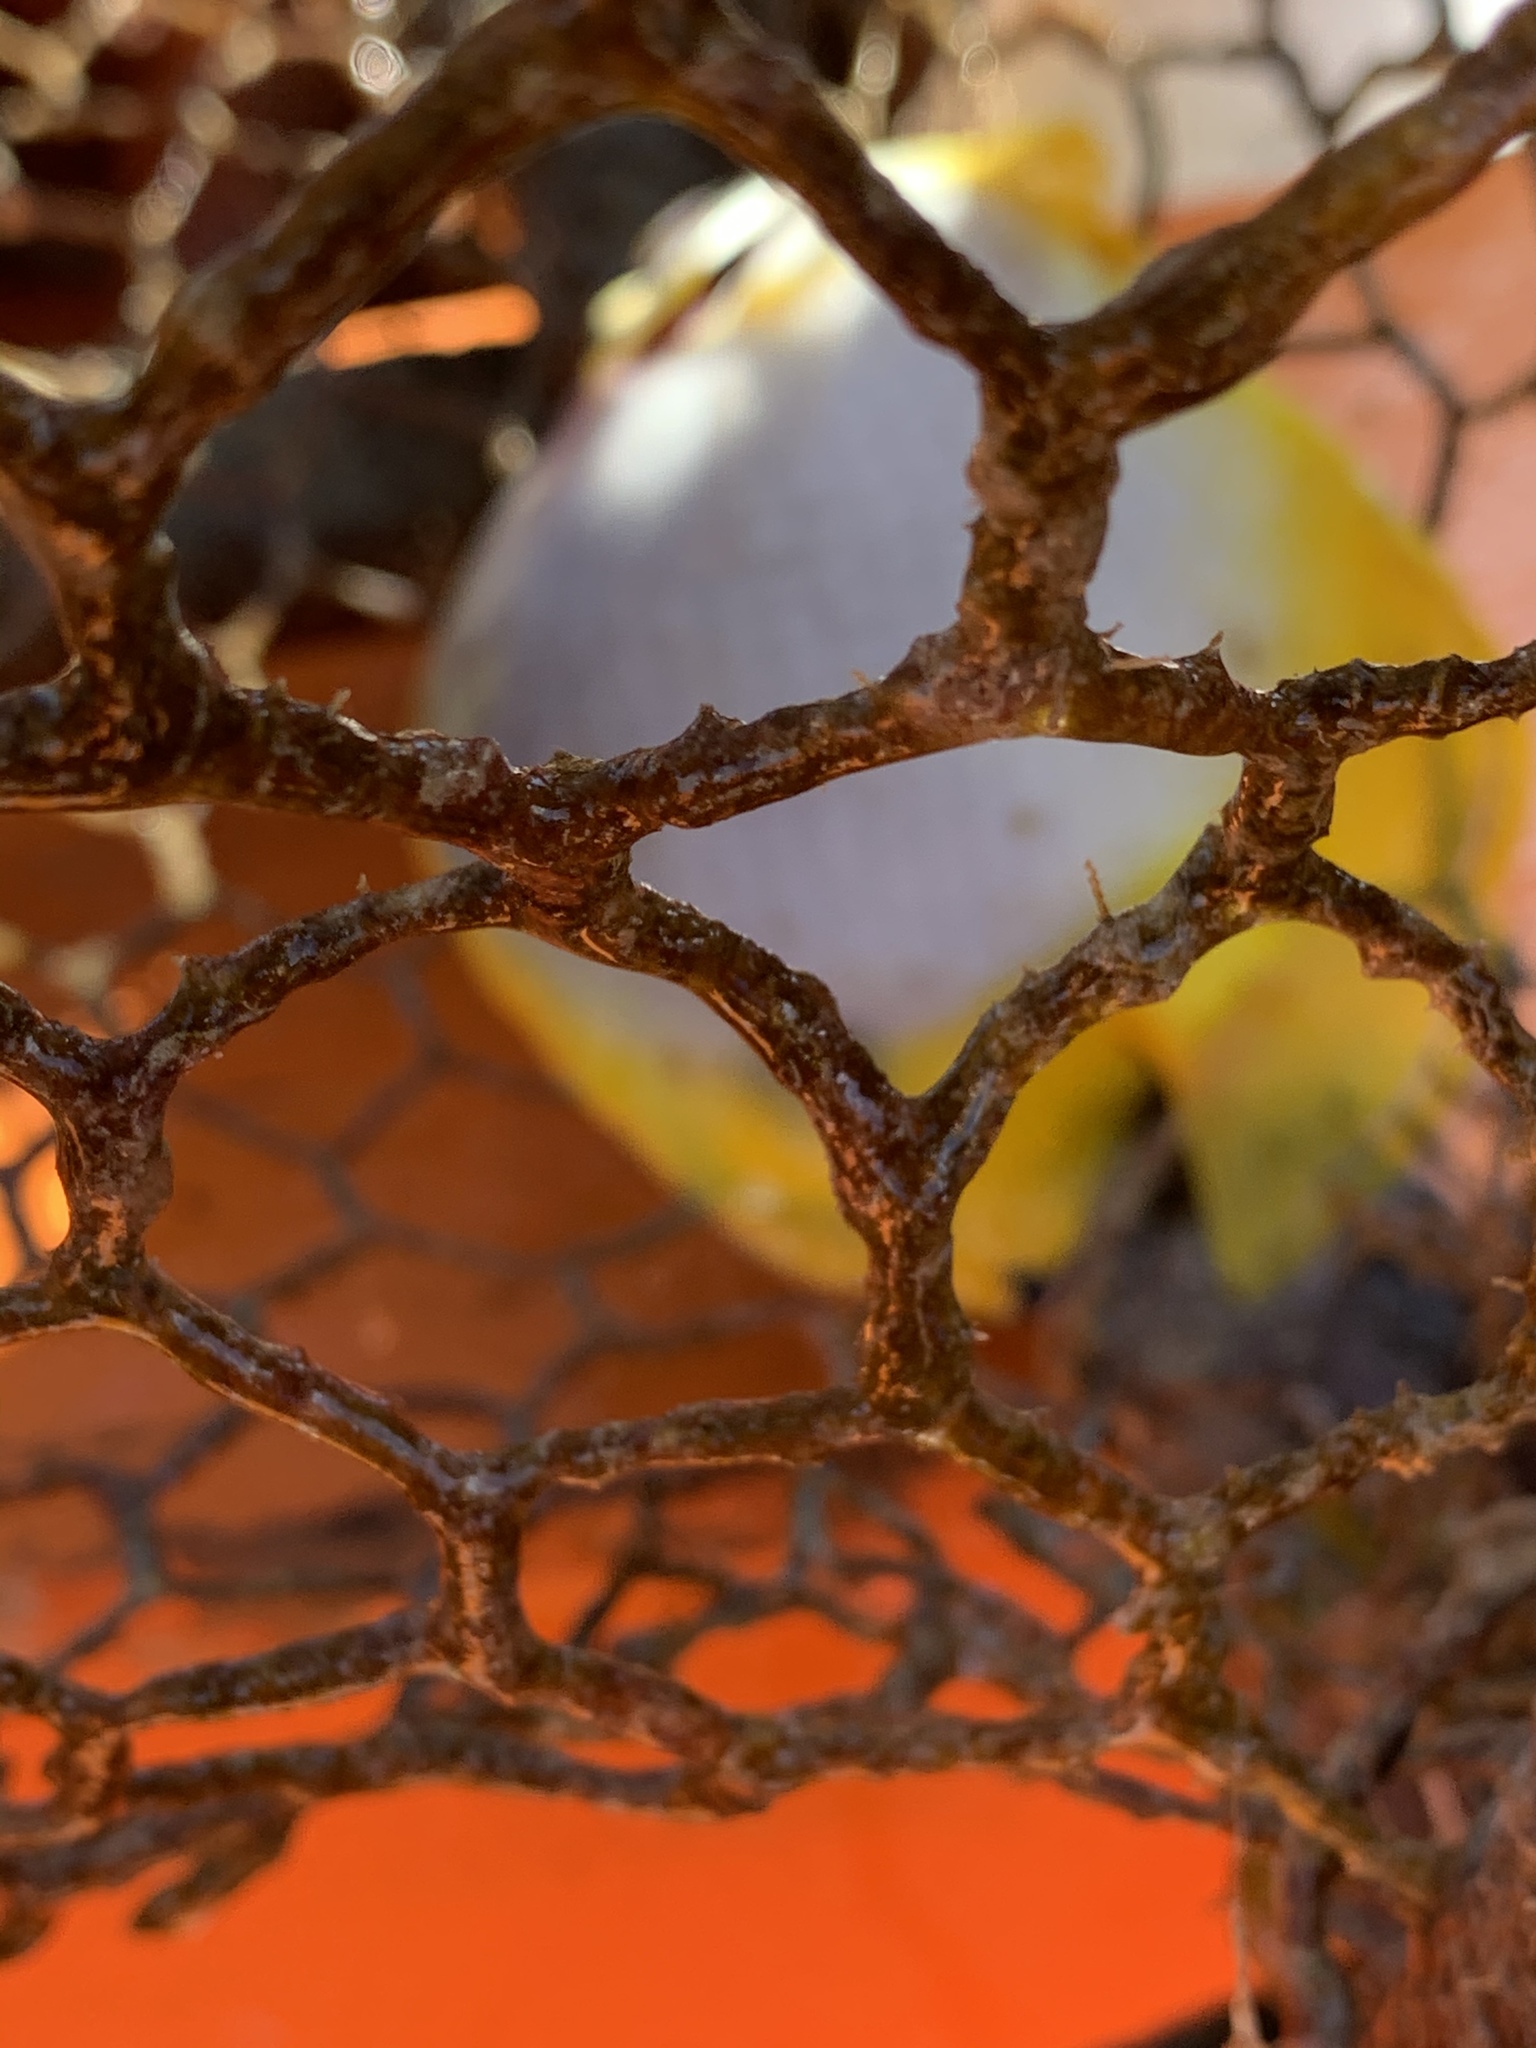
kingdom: Animalia
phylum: Chordata
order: Perciformes
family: Chaetodontidae
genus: Chaetodon
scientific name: Chaetodon ocellatus
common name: Spotfin butterflyfish
